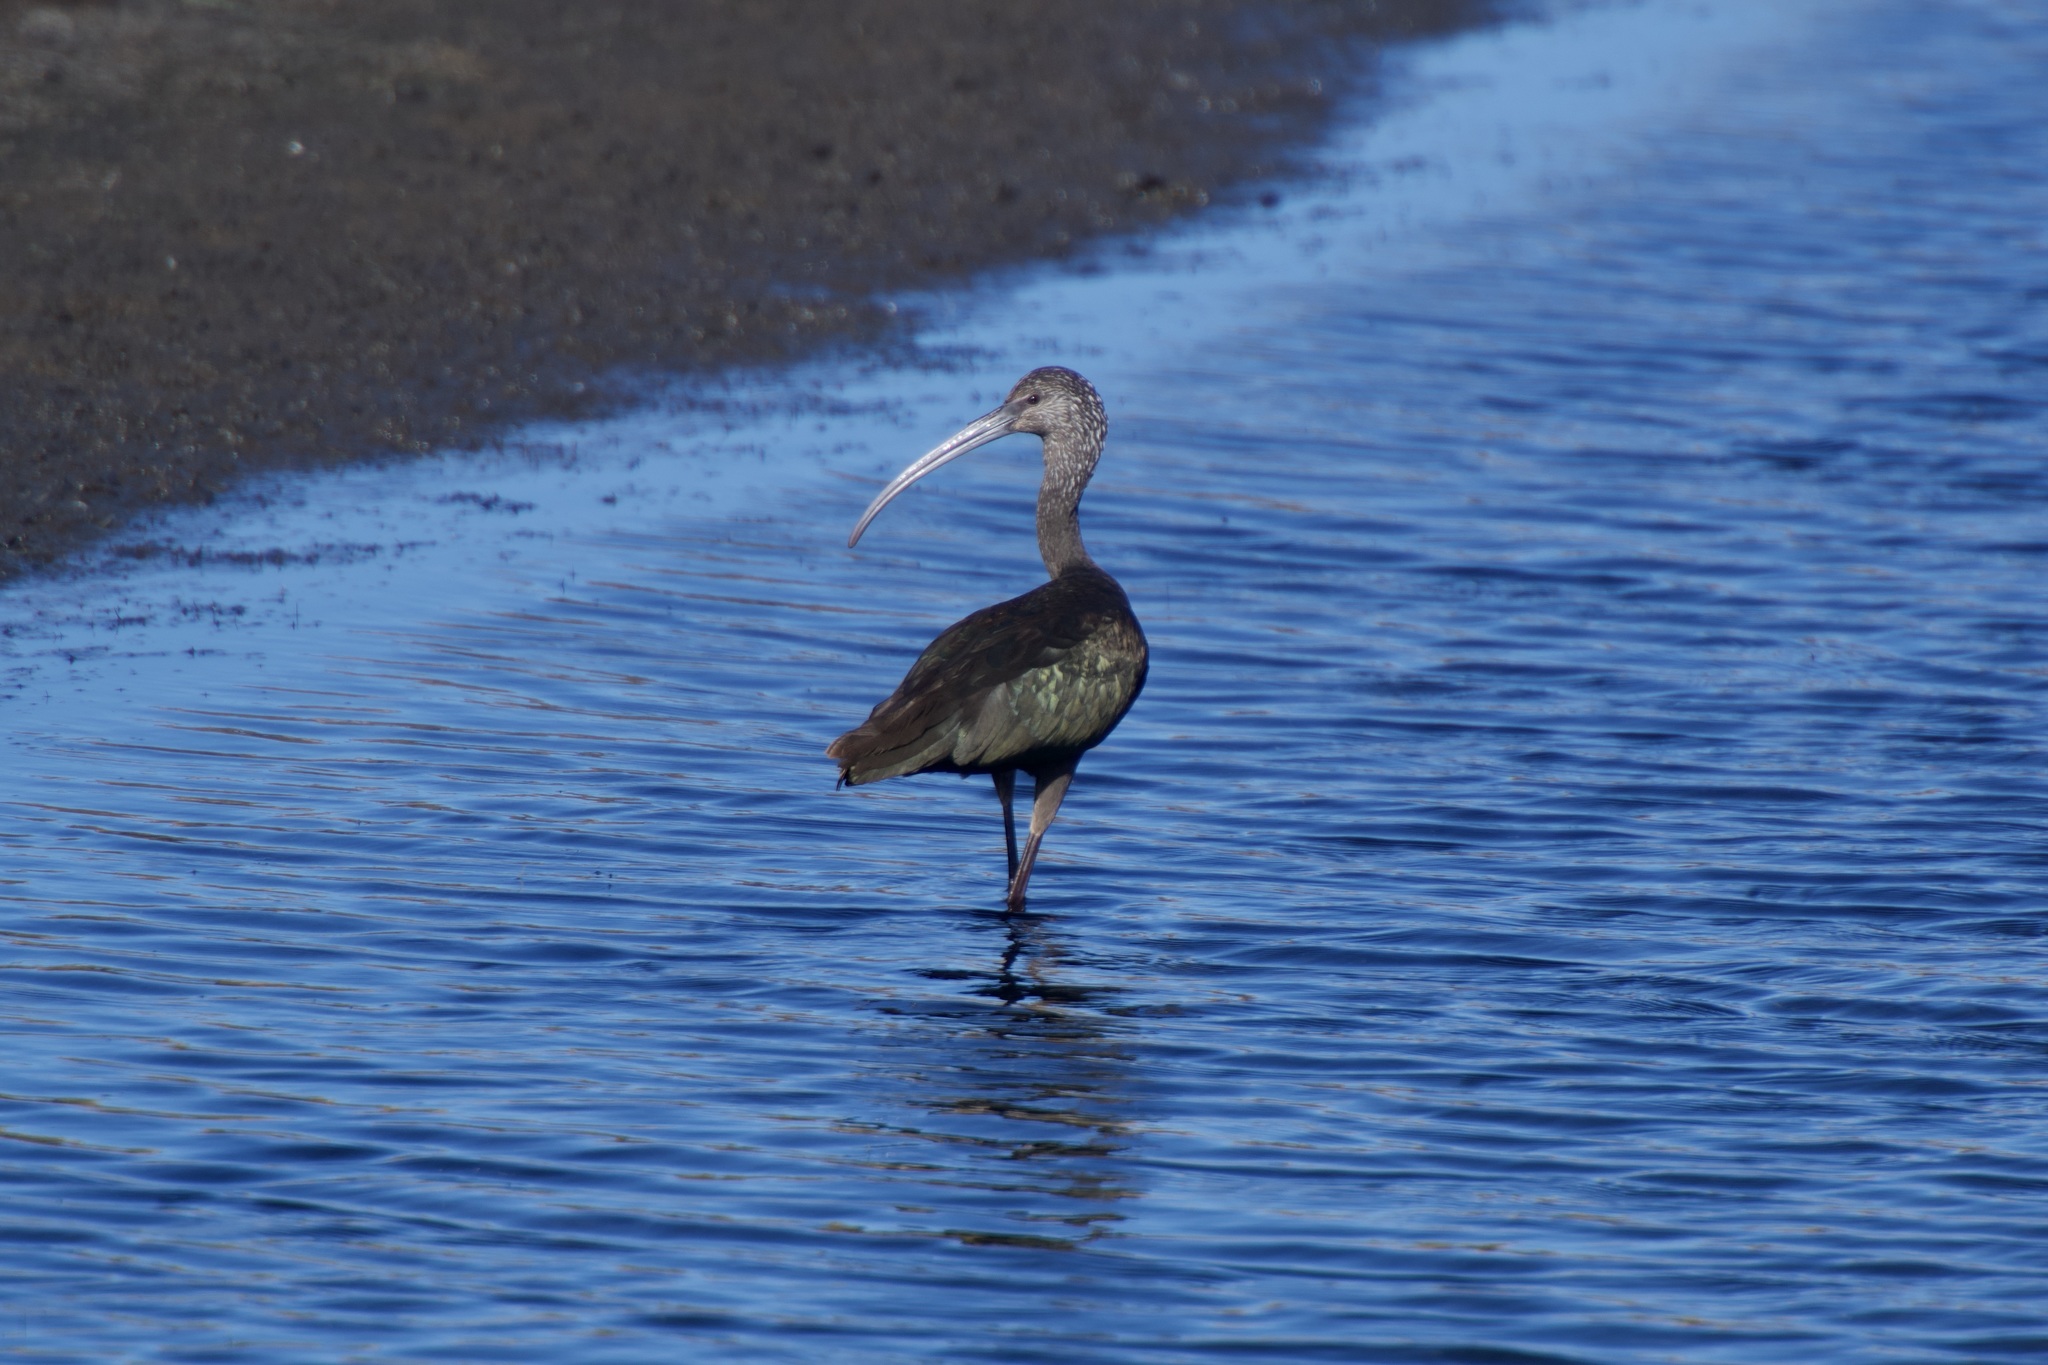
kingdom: Animalia
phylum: Chordata
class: Aves
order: Pelecaniformes
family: Threskiornithidae
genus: Plegadis
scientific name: Plegadis chihi
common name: White-faced ibis
